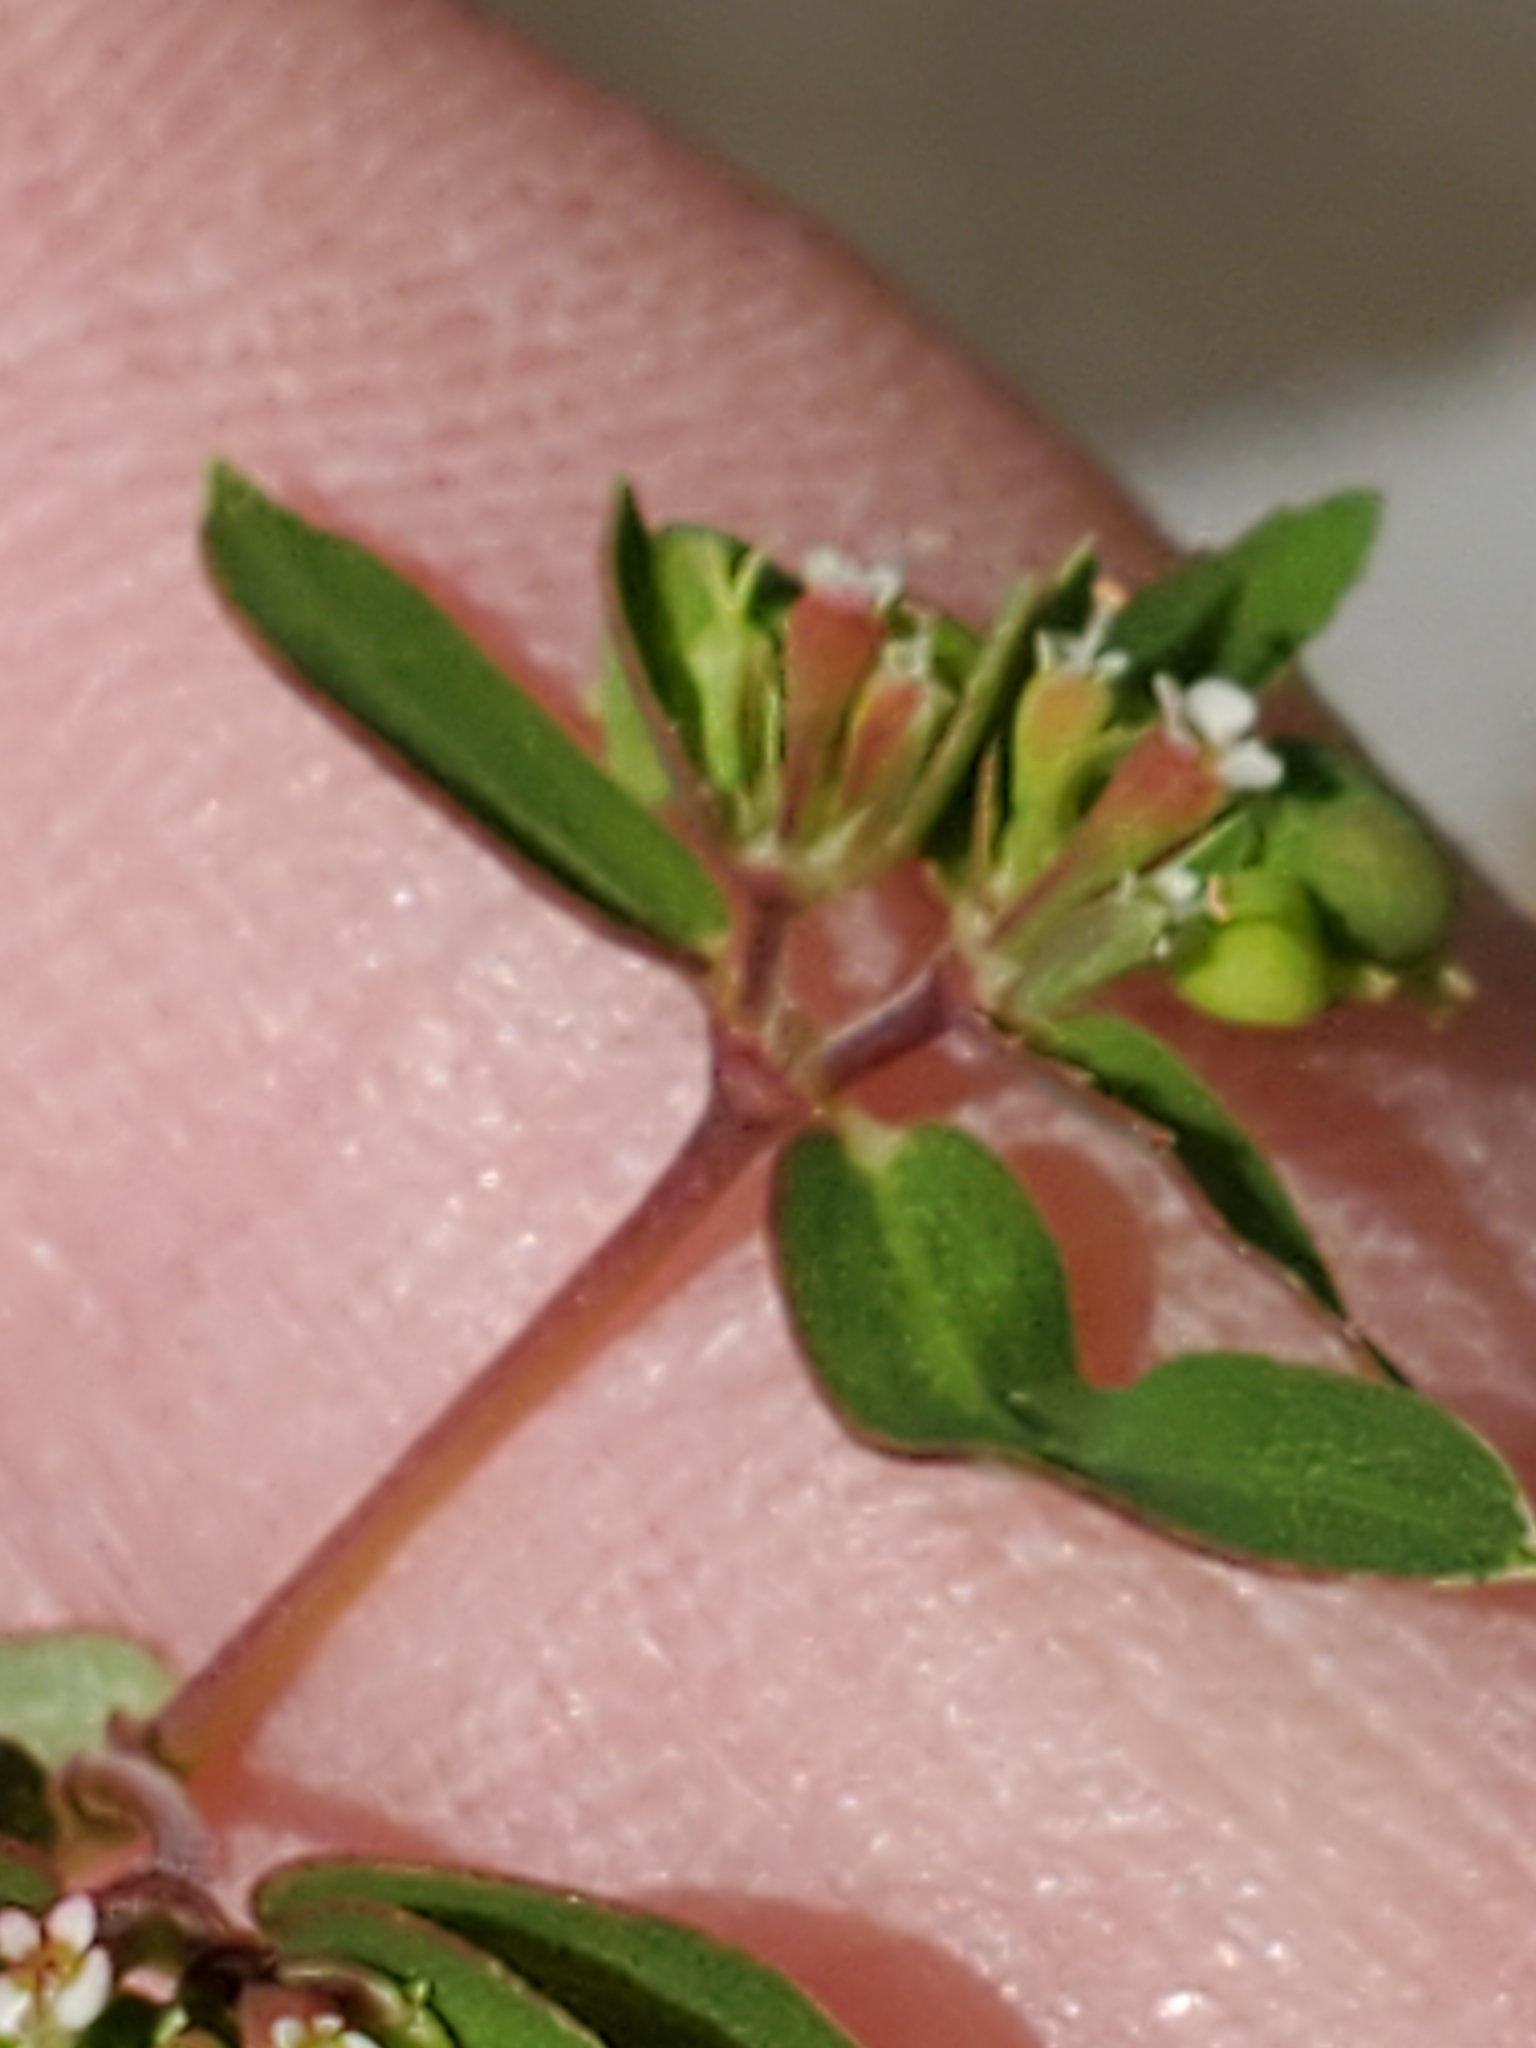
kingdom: Plantae
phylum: Tracheophyta
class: Magnoliopsida
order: Malpighiales
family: Euphorbiaceae
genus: Euphorbia
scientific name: Euphorbia nutans
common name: Eyebane
